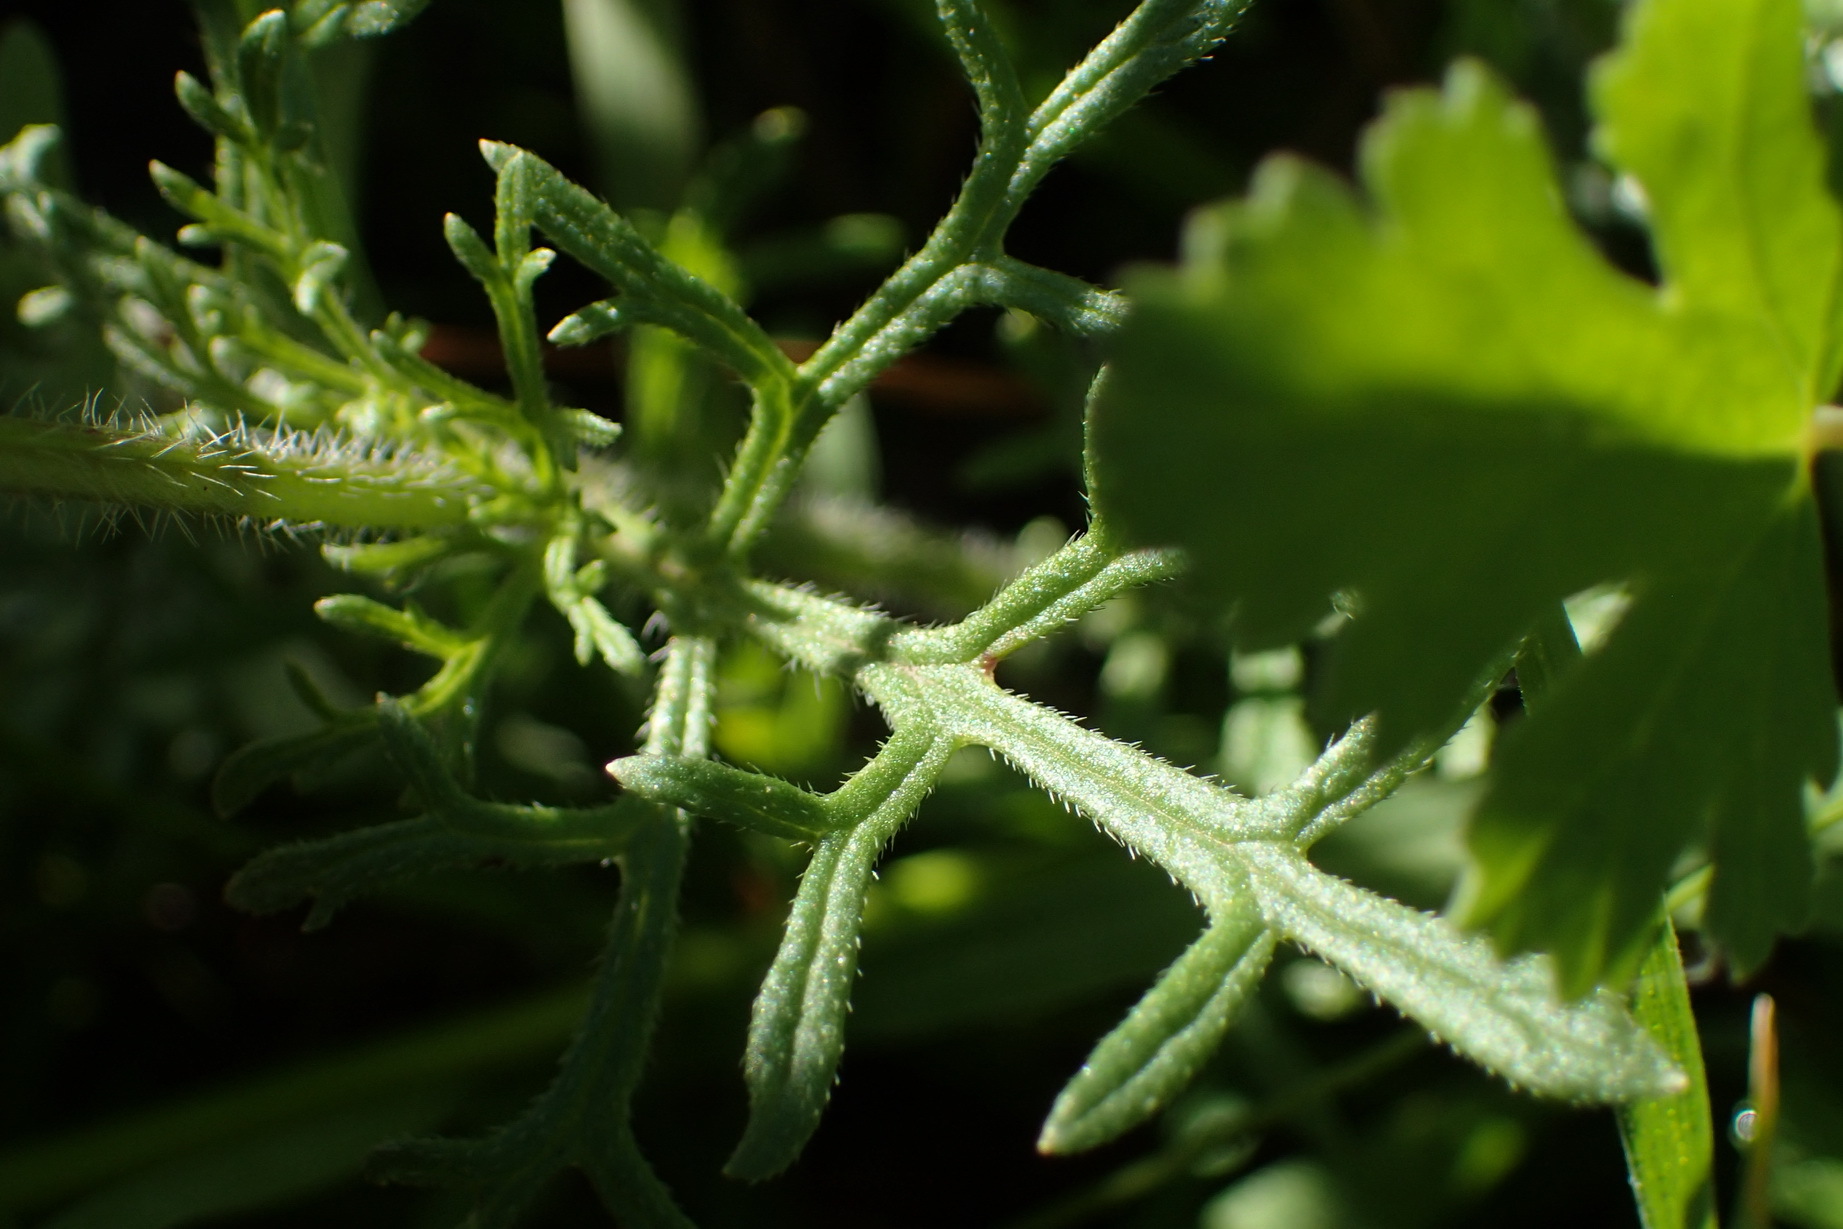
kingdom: Plantae
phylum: Tracheophyta
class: Magnoliopsida
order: Lamiales
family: Verbenaceae
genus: Verbena
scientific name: Verbena bipinnatifida
